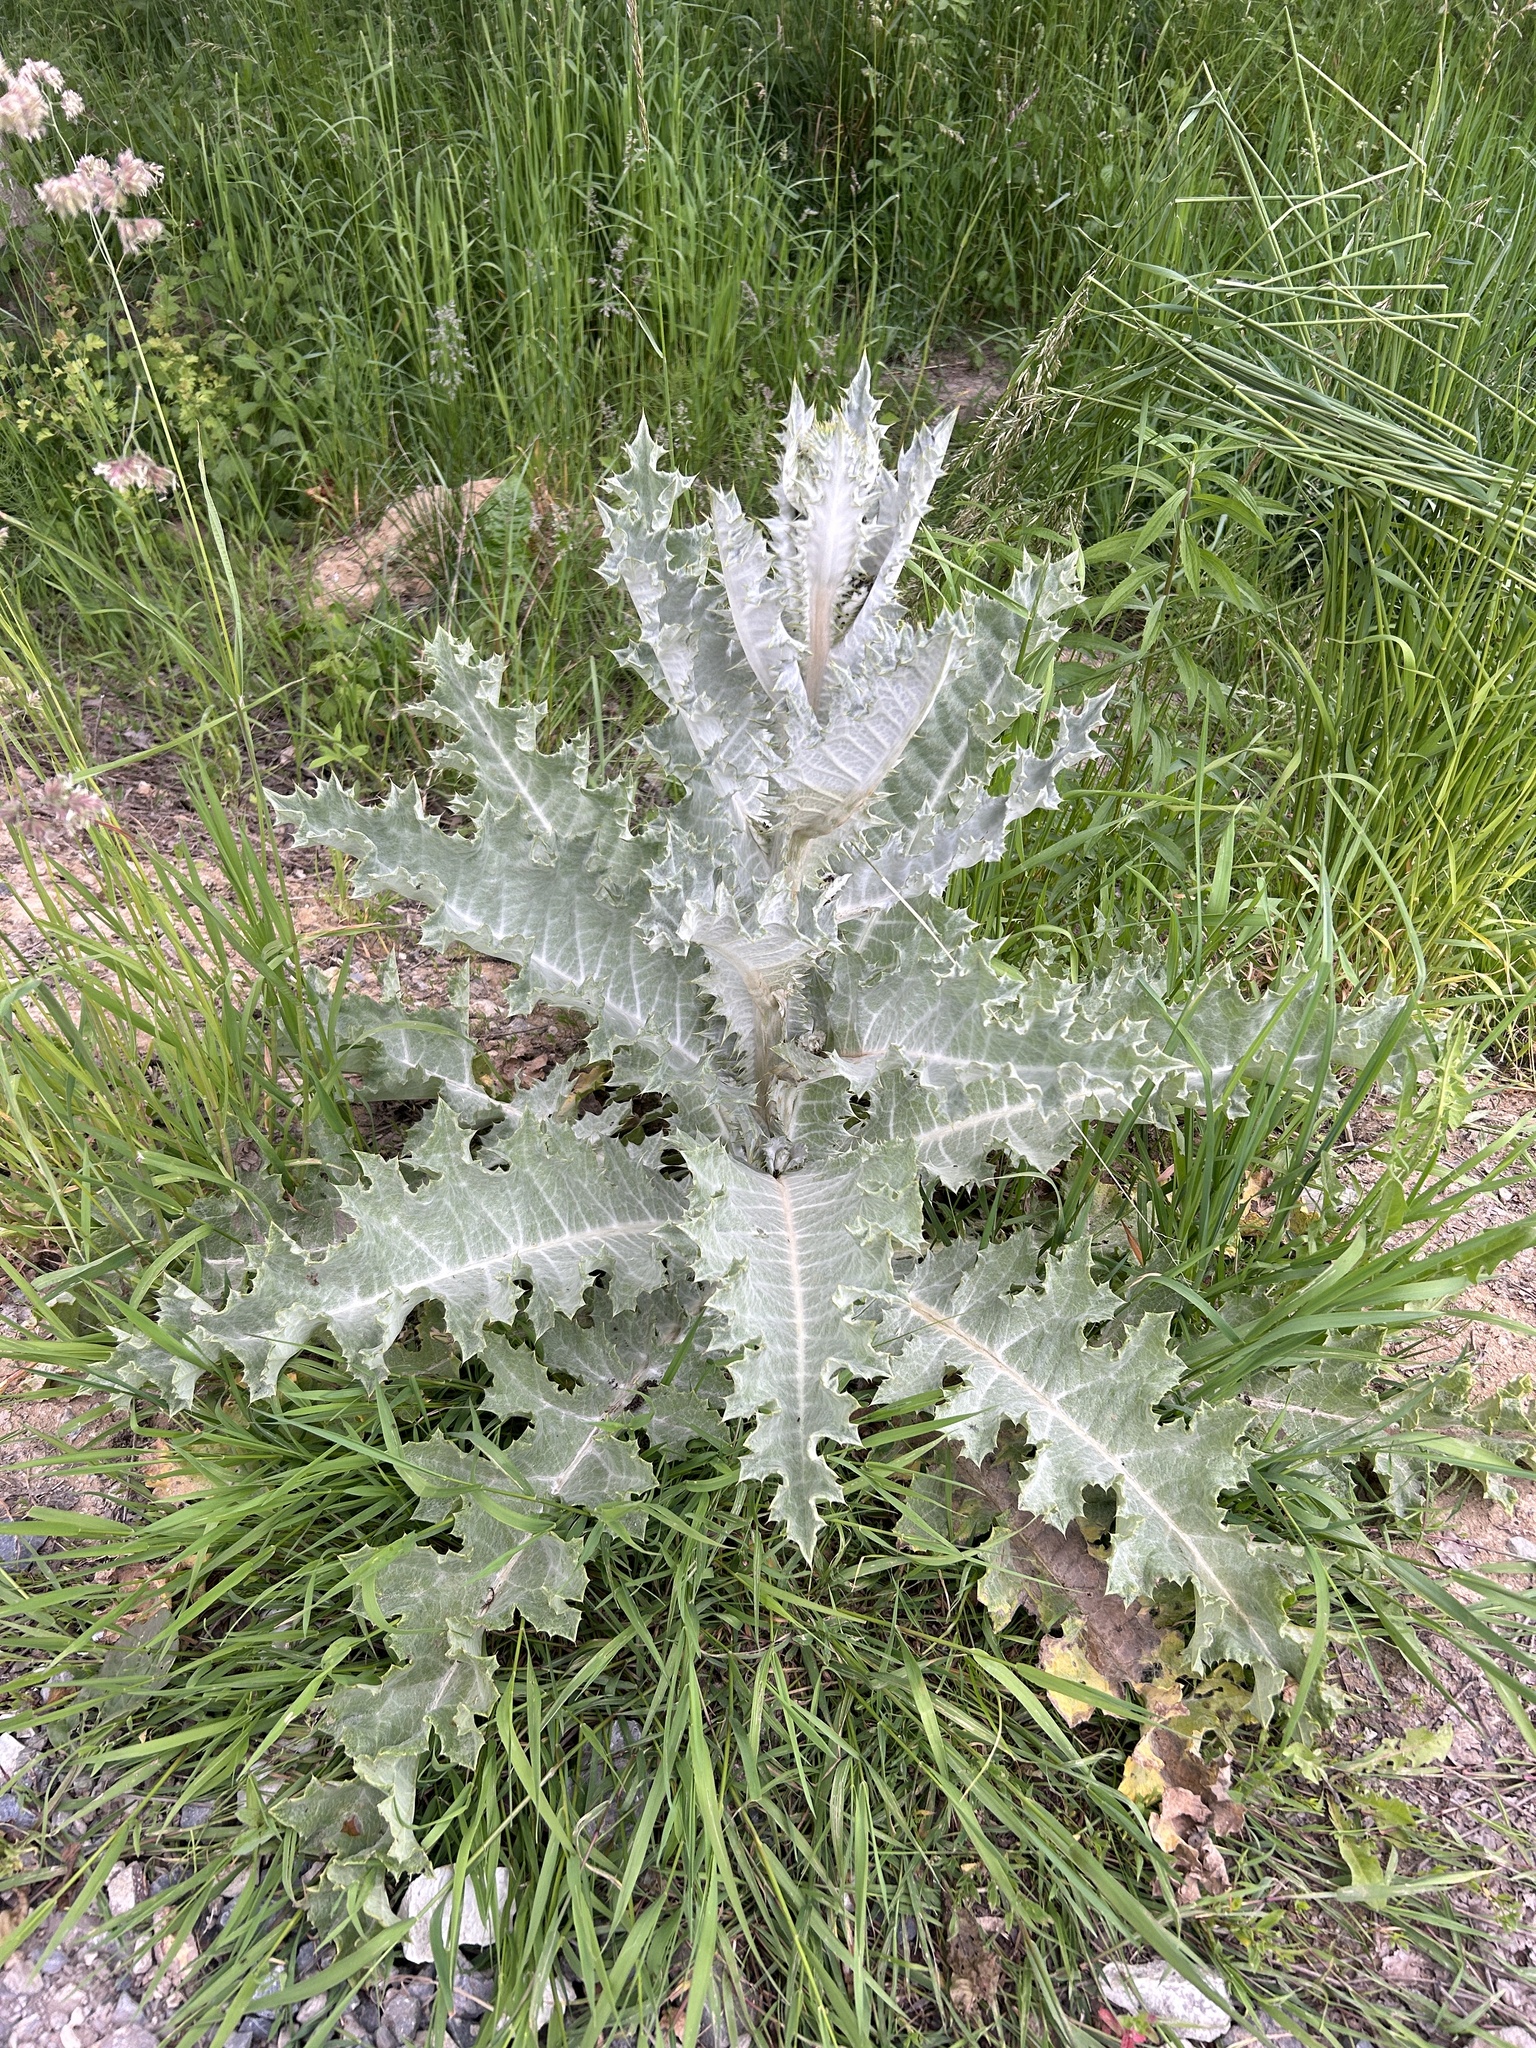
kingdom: Plantae
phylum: Tracheophyta
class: Magnoliopsida
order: Asterales
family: Asteraceae
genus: Onopordum
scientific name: Onopordum acanthium
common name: Scotch thistle
